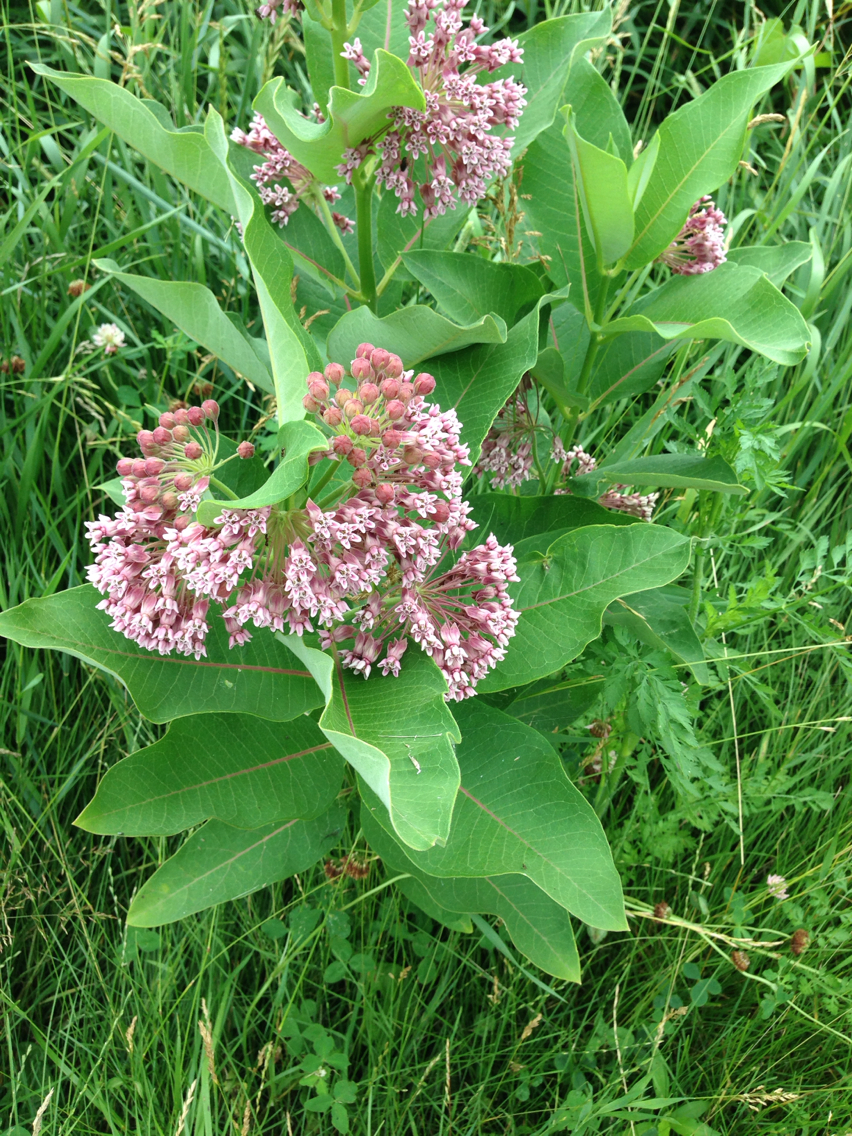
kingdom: Plantae
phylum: Tracheophyta
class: Magnoliopsida
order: Gentianales
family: Apocynaceae
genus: Asclepias
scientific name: Asclepias syriaca
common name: Common milkweed
